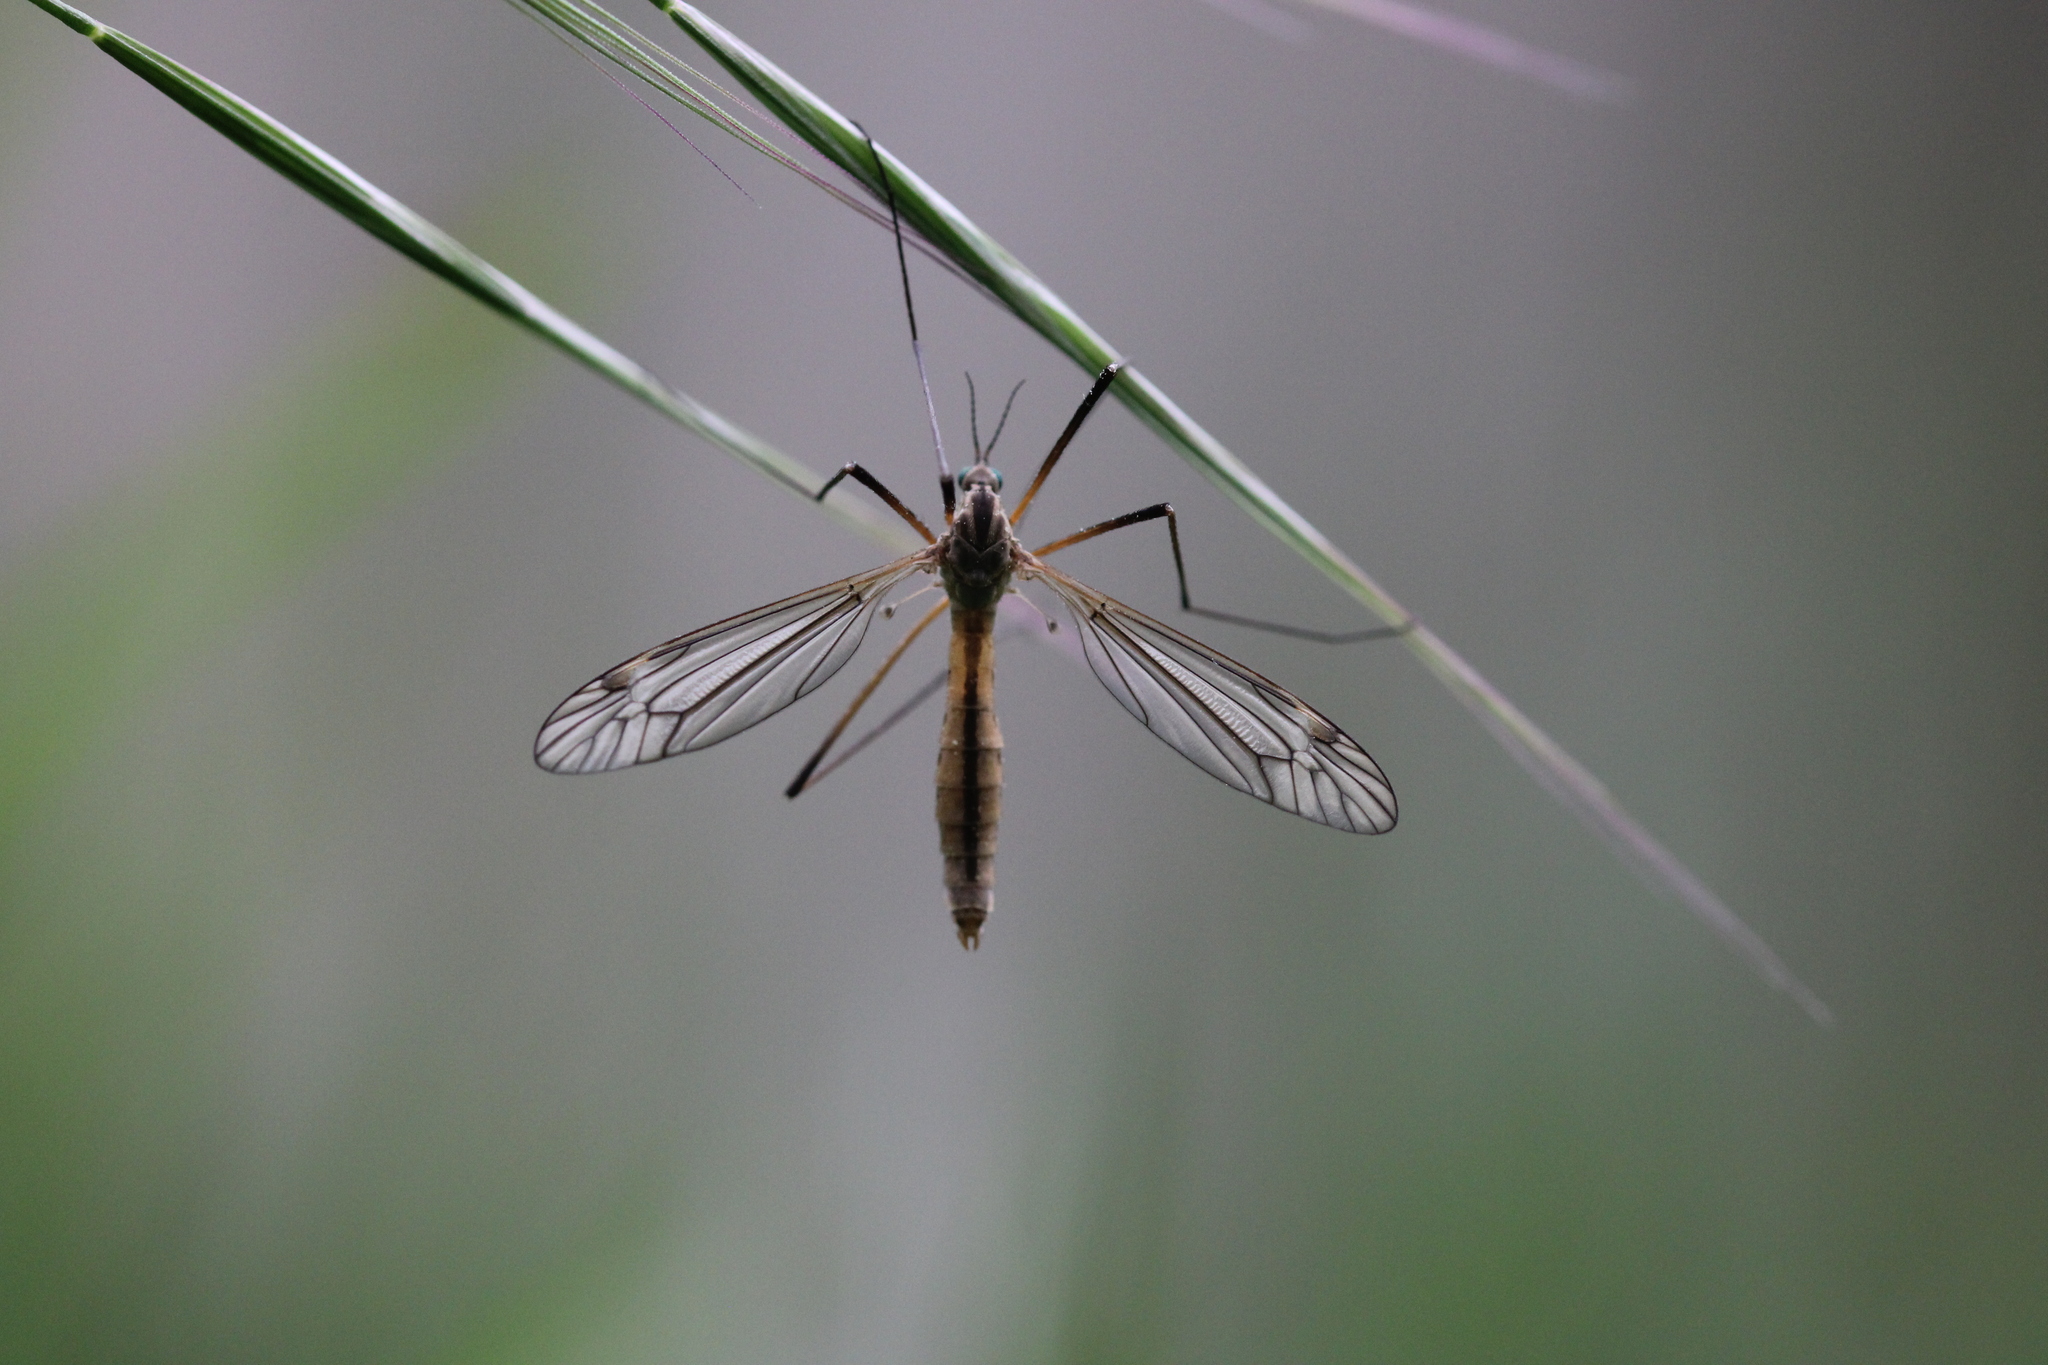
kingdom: Animalia
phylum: Arthropoda
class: Insecta
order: Diptera
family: Tipulidae
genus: Tipula
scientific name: Tipula vernalis
